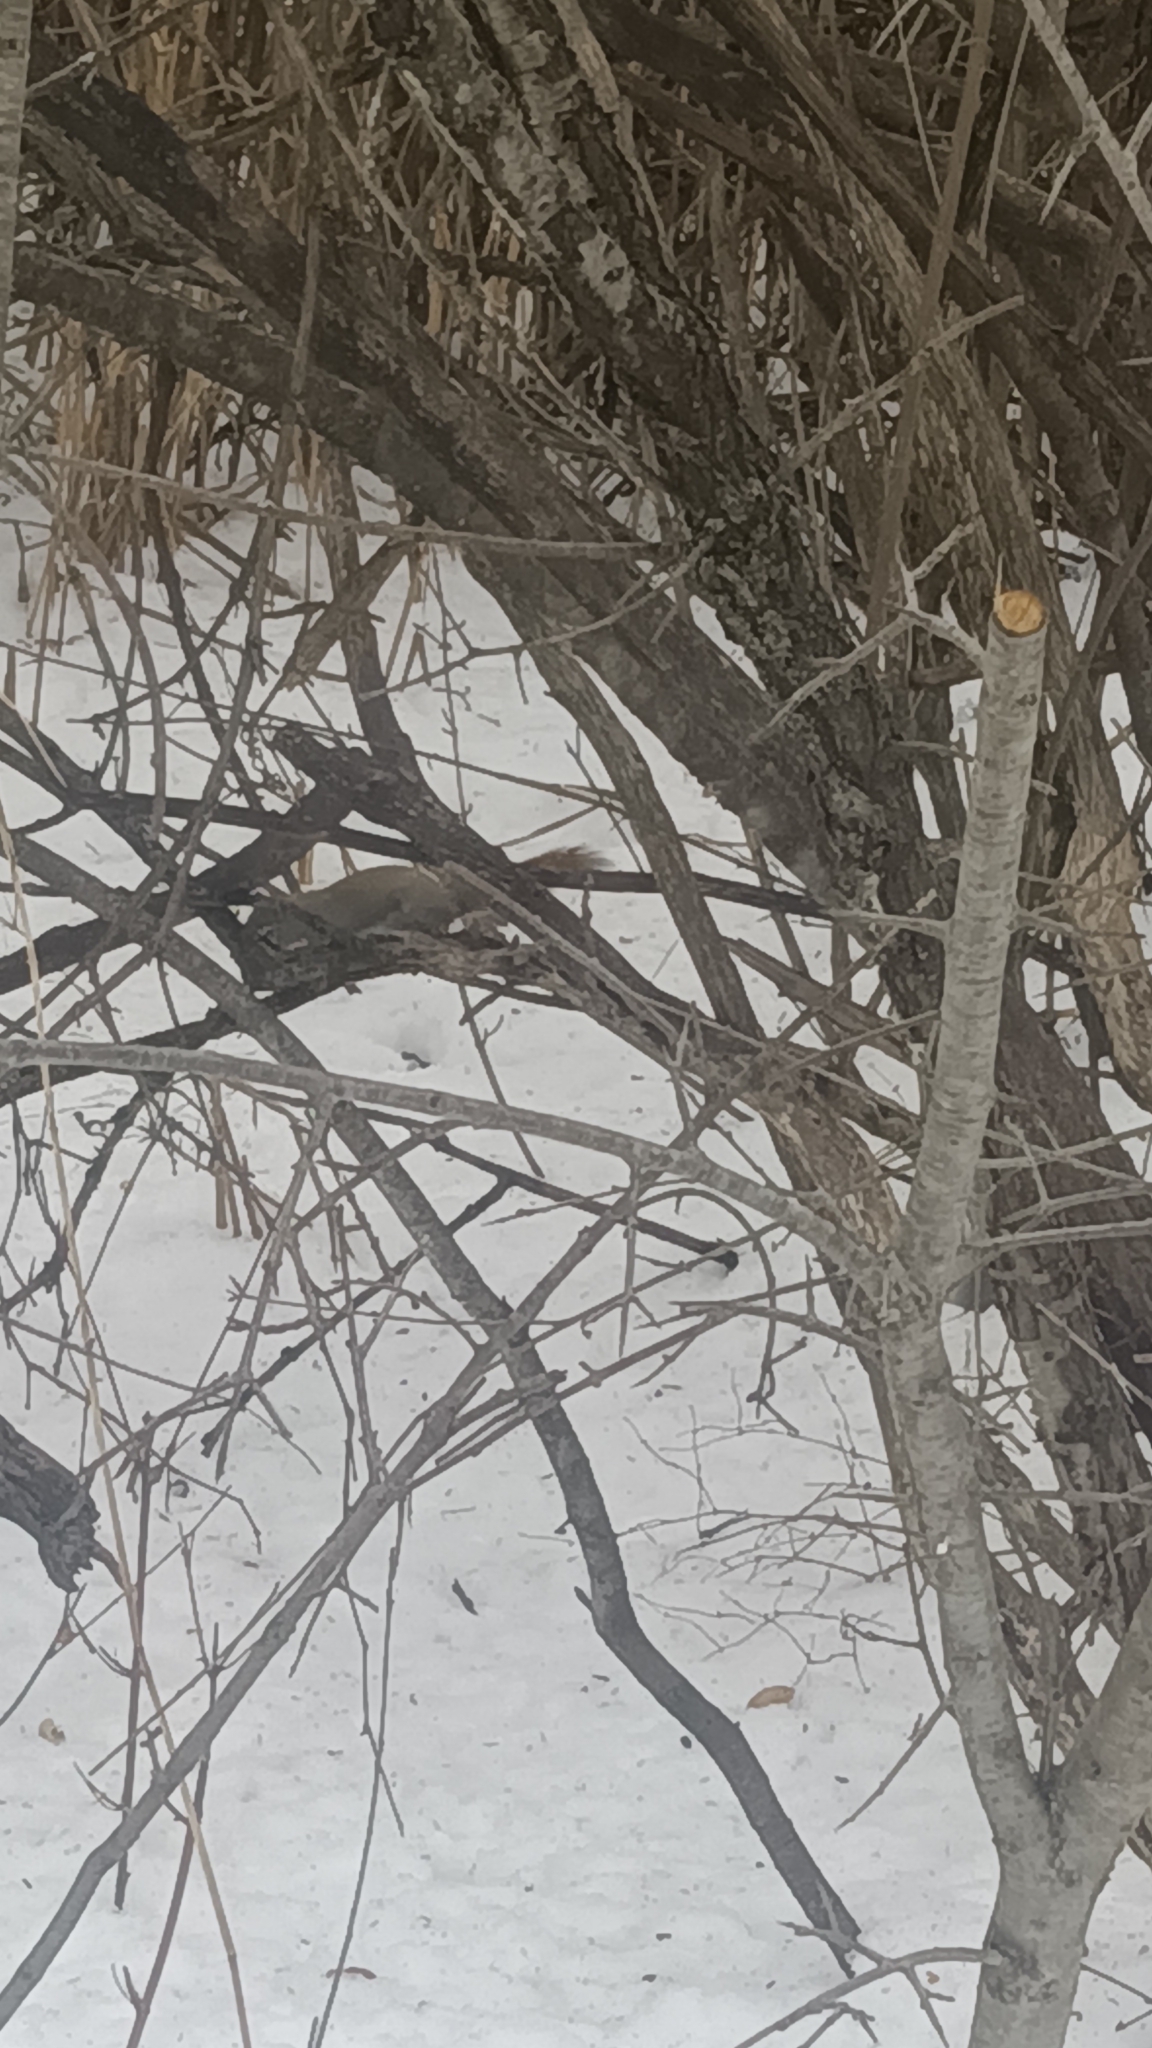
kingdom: Animalia
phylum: Chordata
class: Mammalia
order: Rodentia
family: Sciuridae
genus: Tamiasciurus
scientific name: Tamiasciurus hudsonicus
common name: Red squirrel
